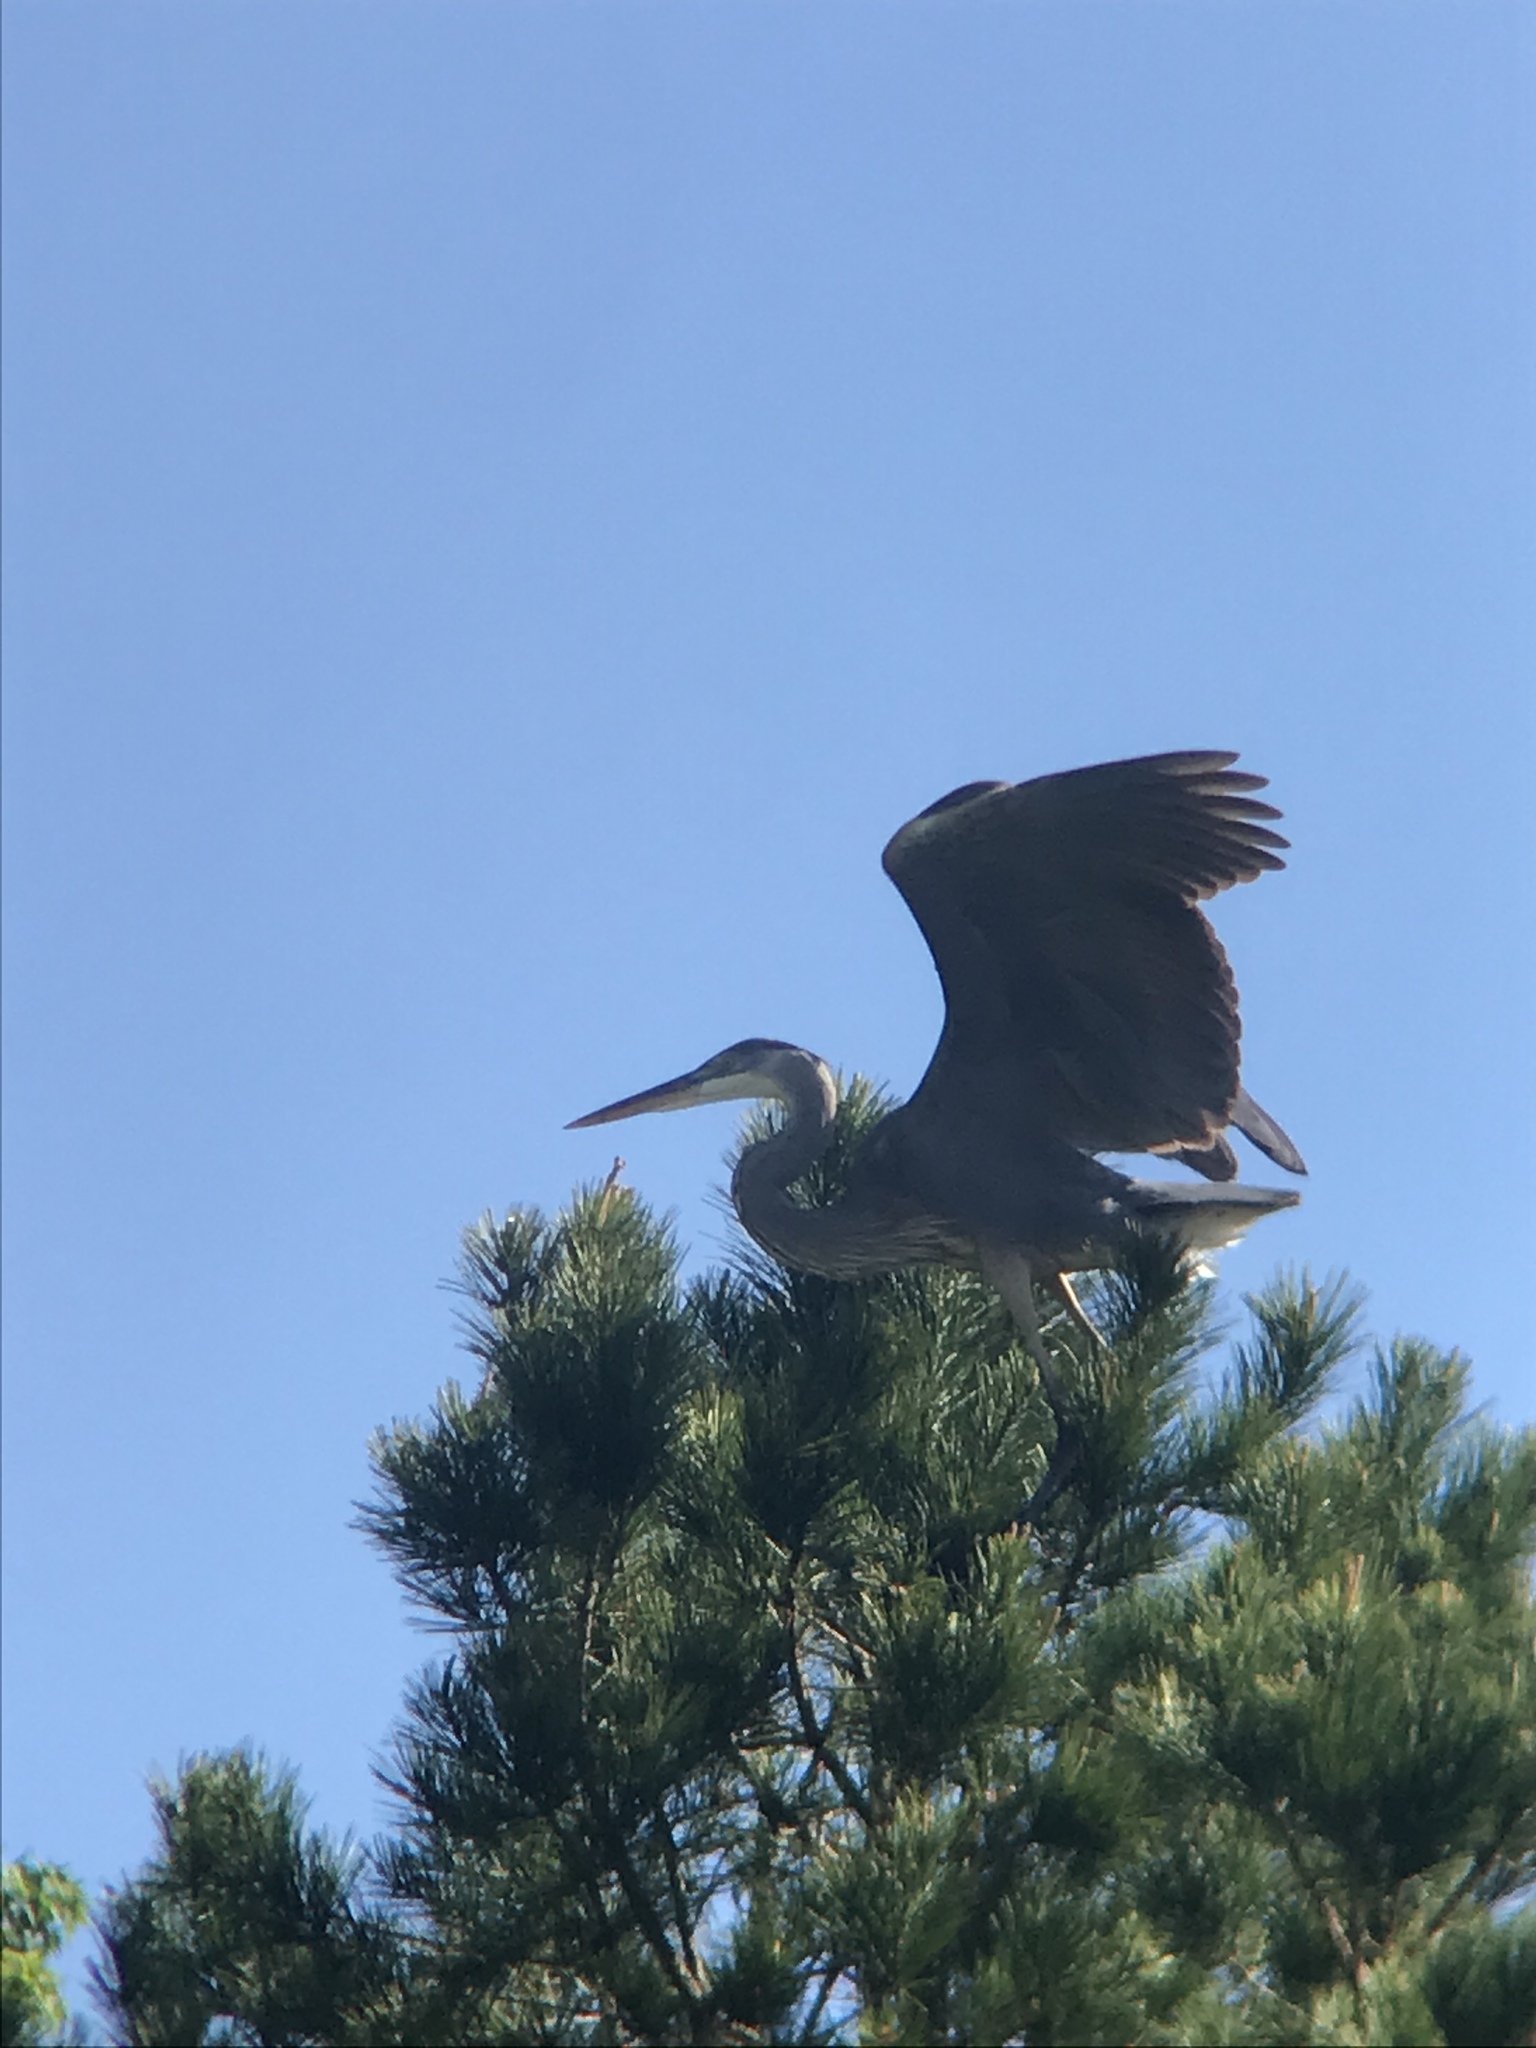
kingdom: Animalia
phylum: Chordata
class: Aves
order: Pelecaniformes
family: Ardeidae
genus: Ardea
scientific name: Ardea herodias
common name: Great blue heron
